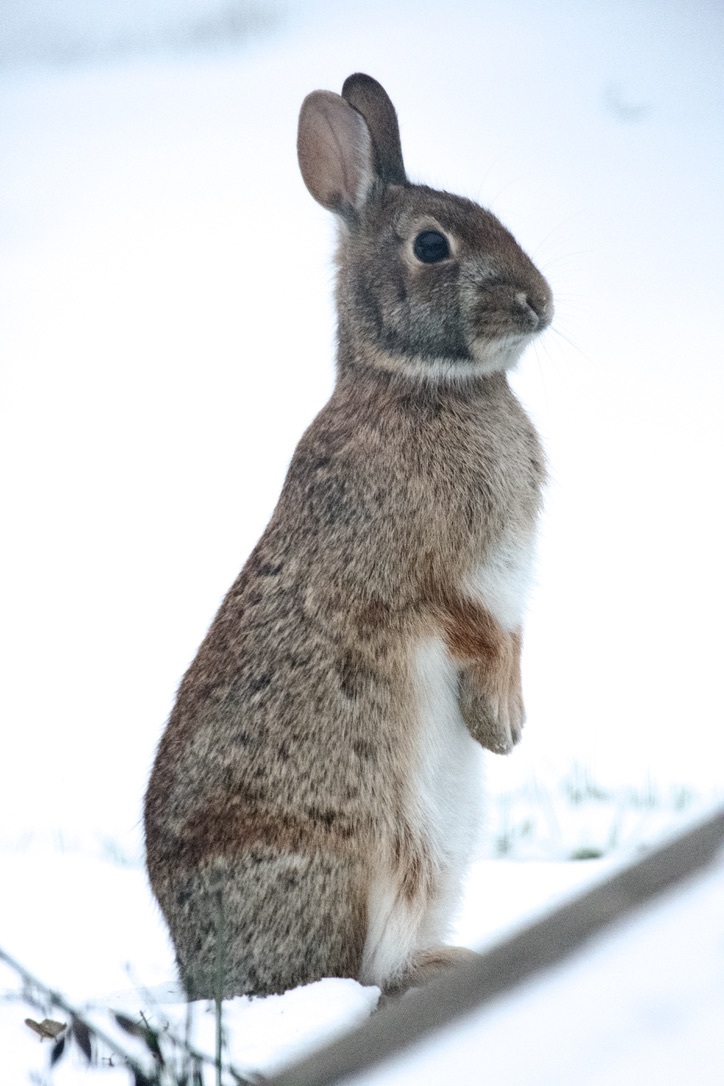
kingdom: Animalia
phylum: Chordata
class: Mammalia
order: Lagomorpha
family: Leporidae
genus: Sylvilagus
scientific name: Sylvilagus floridanus
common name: Eastern cottontail
